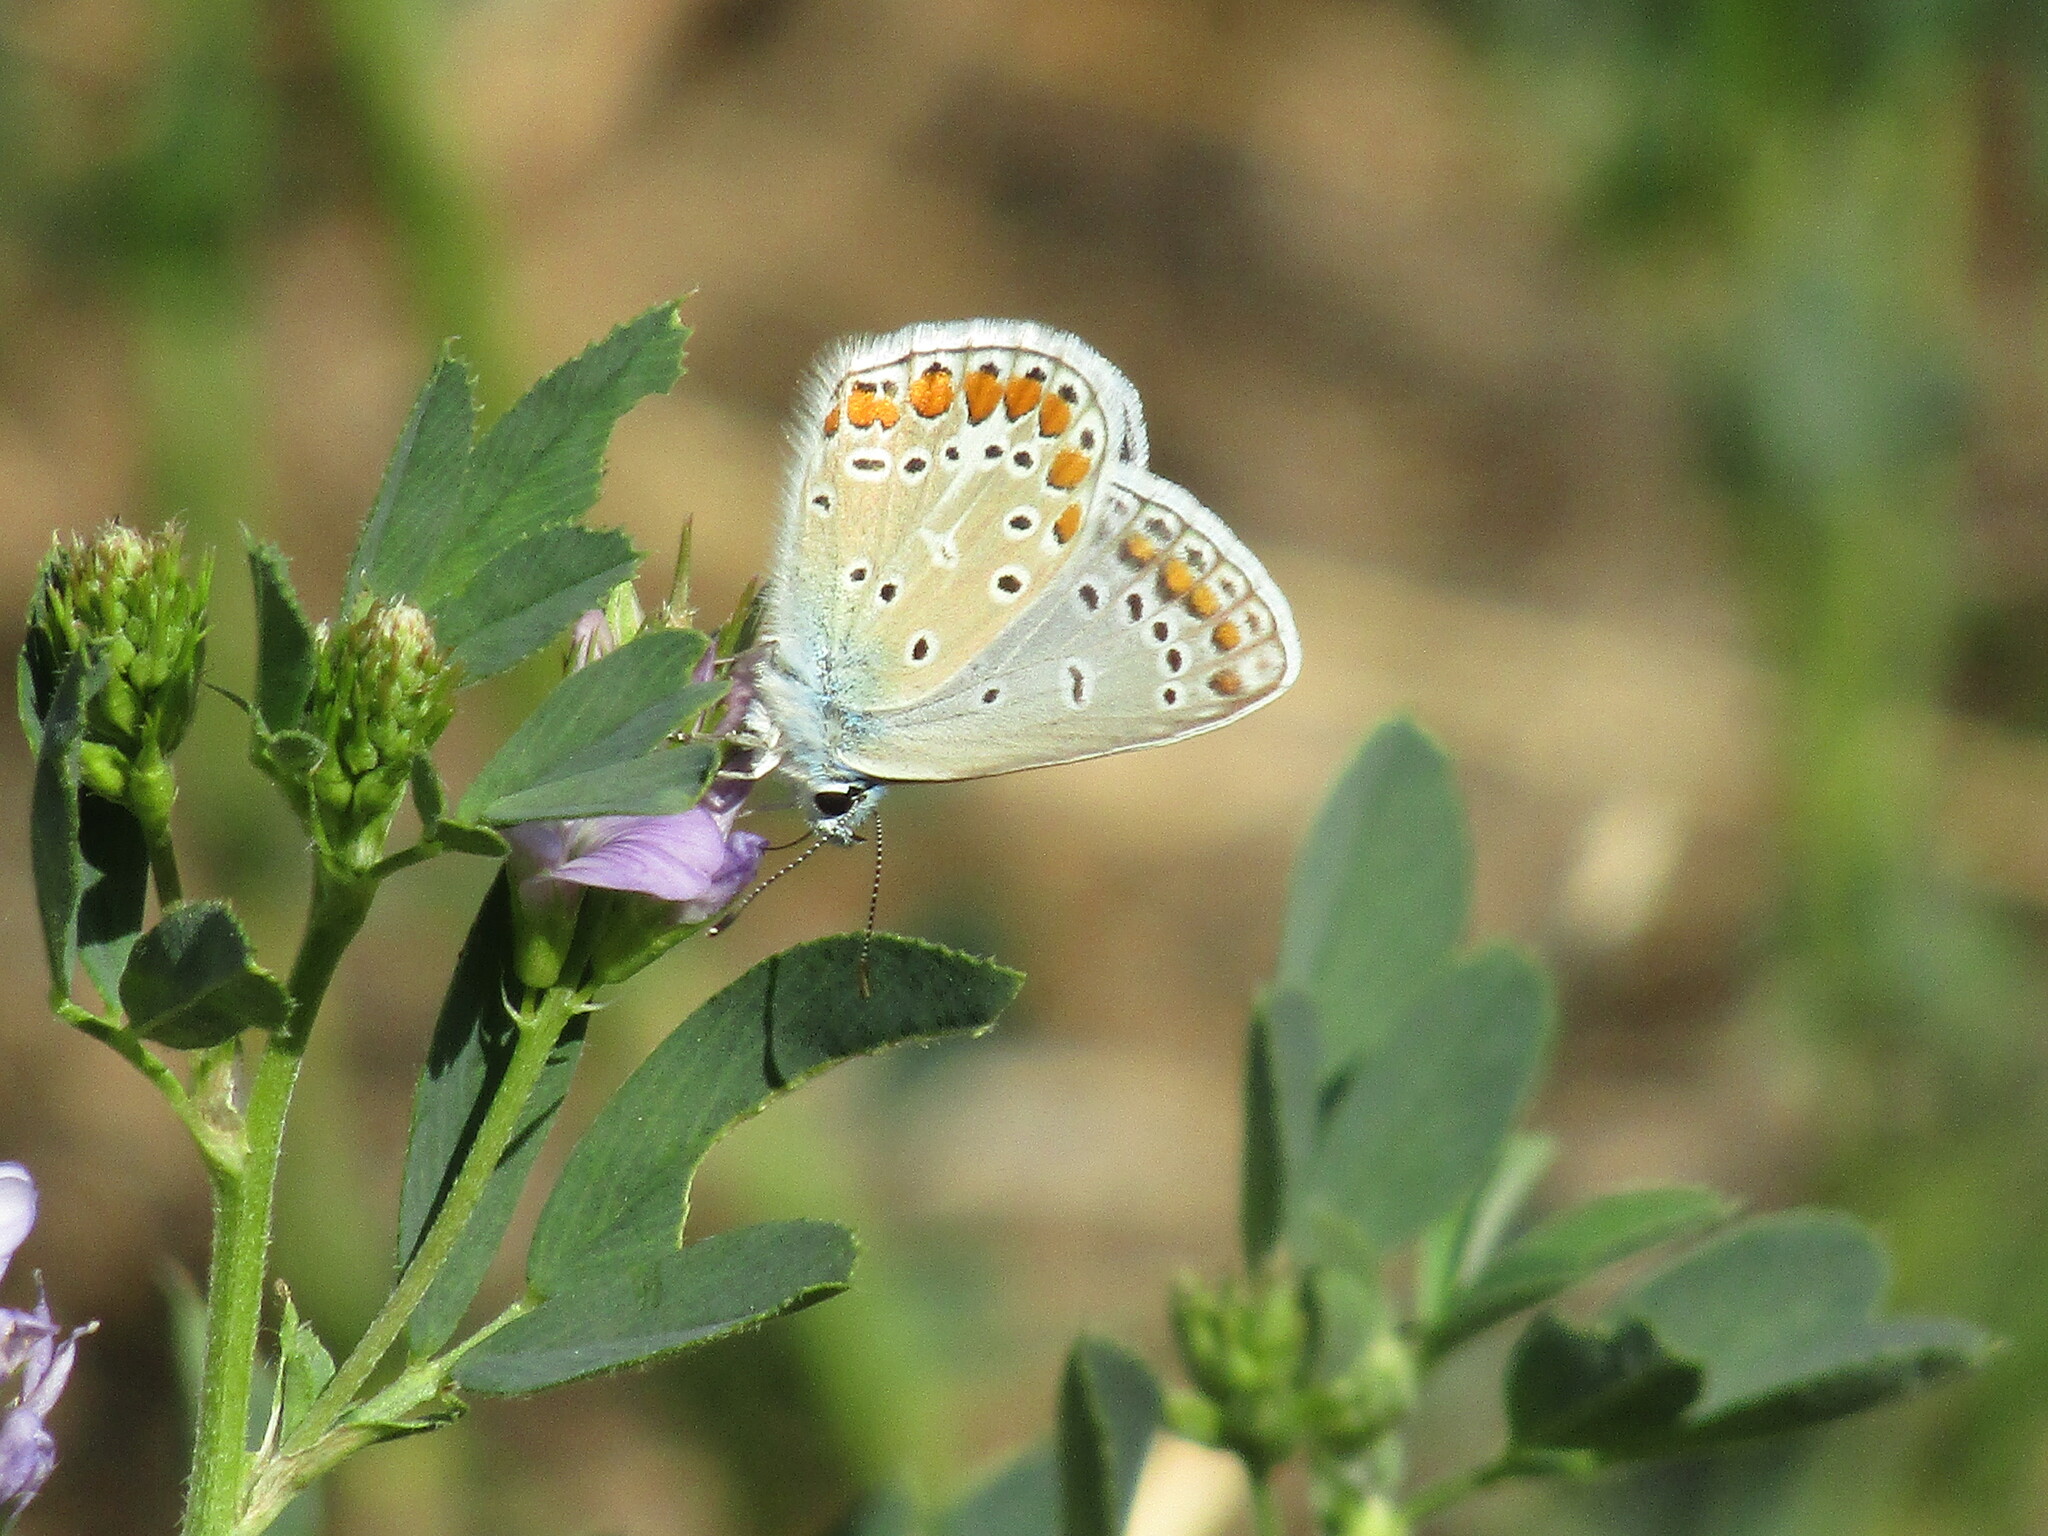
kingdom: Animalia
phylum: Arthropoda
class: Insecta
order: Lepidoptera
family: Lycaenidae
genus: Polyommatus
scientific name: Polyommatus icarus
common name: Common blue
